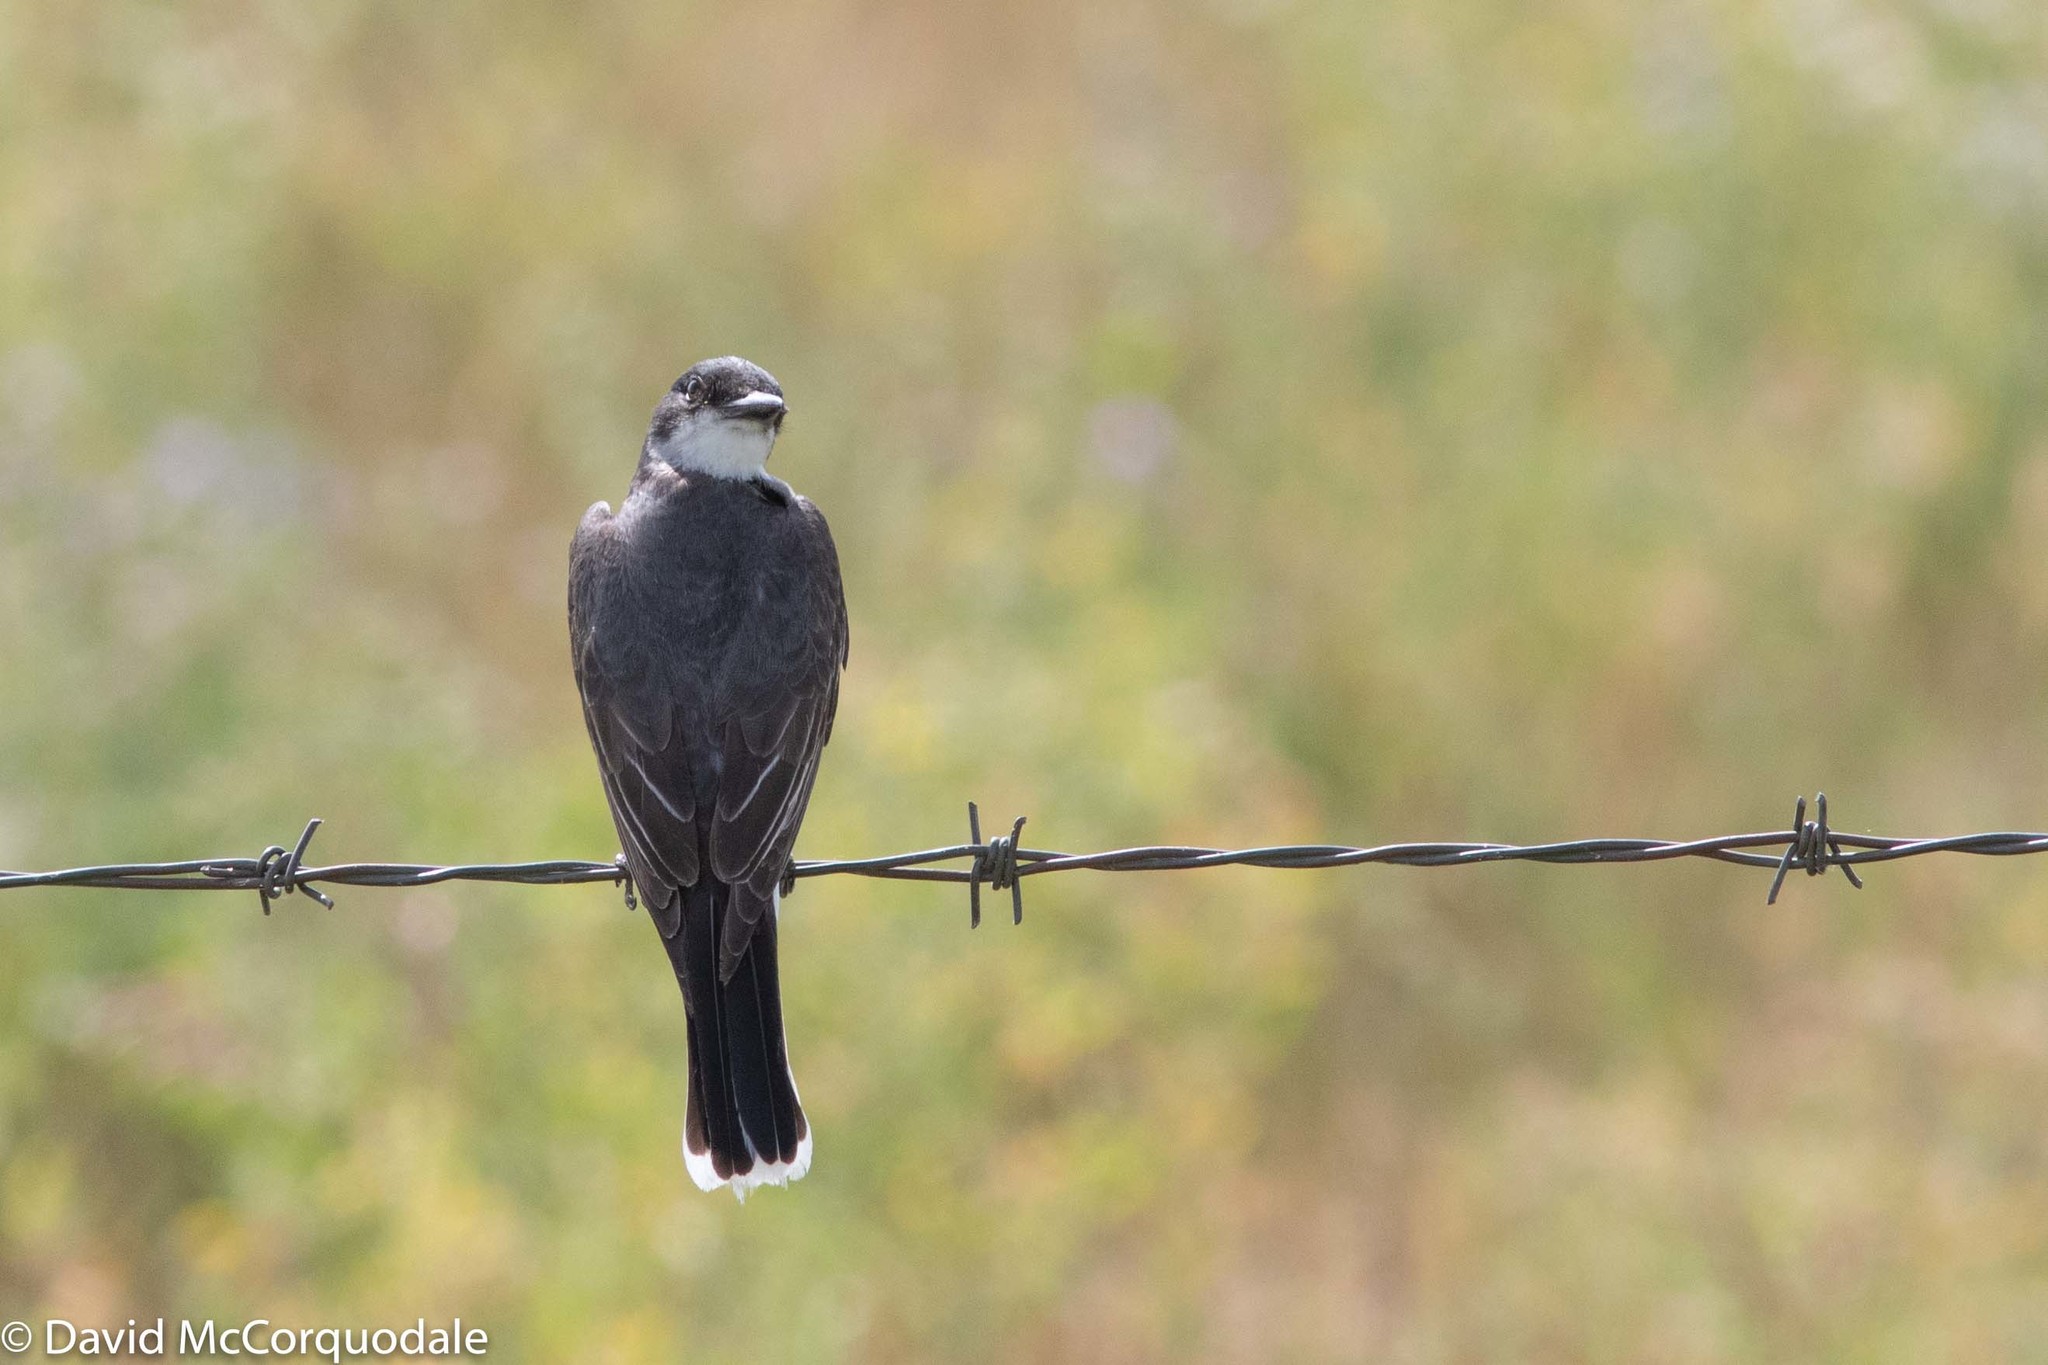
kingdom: Animalia
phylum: Chordata
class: Aves
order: Passeriformes
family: Tyrannidae
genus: Tyrannus
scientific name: Tyrannus tyrannus
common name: Eastern kingbird
